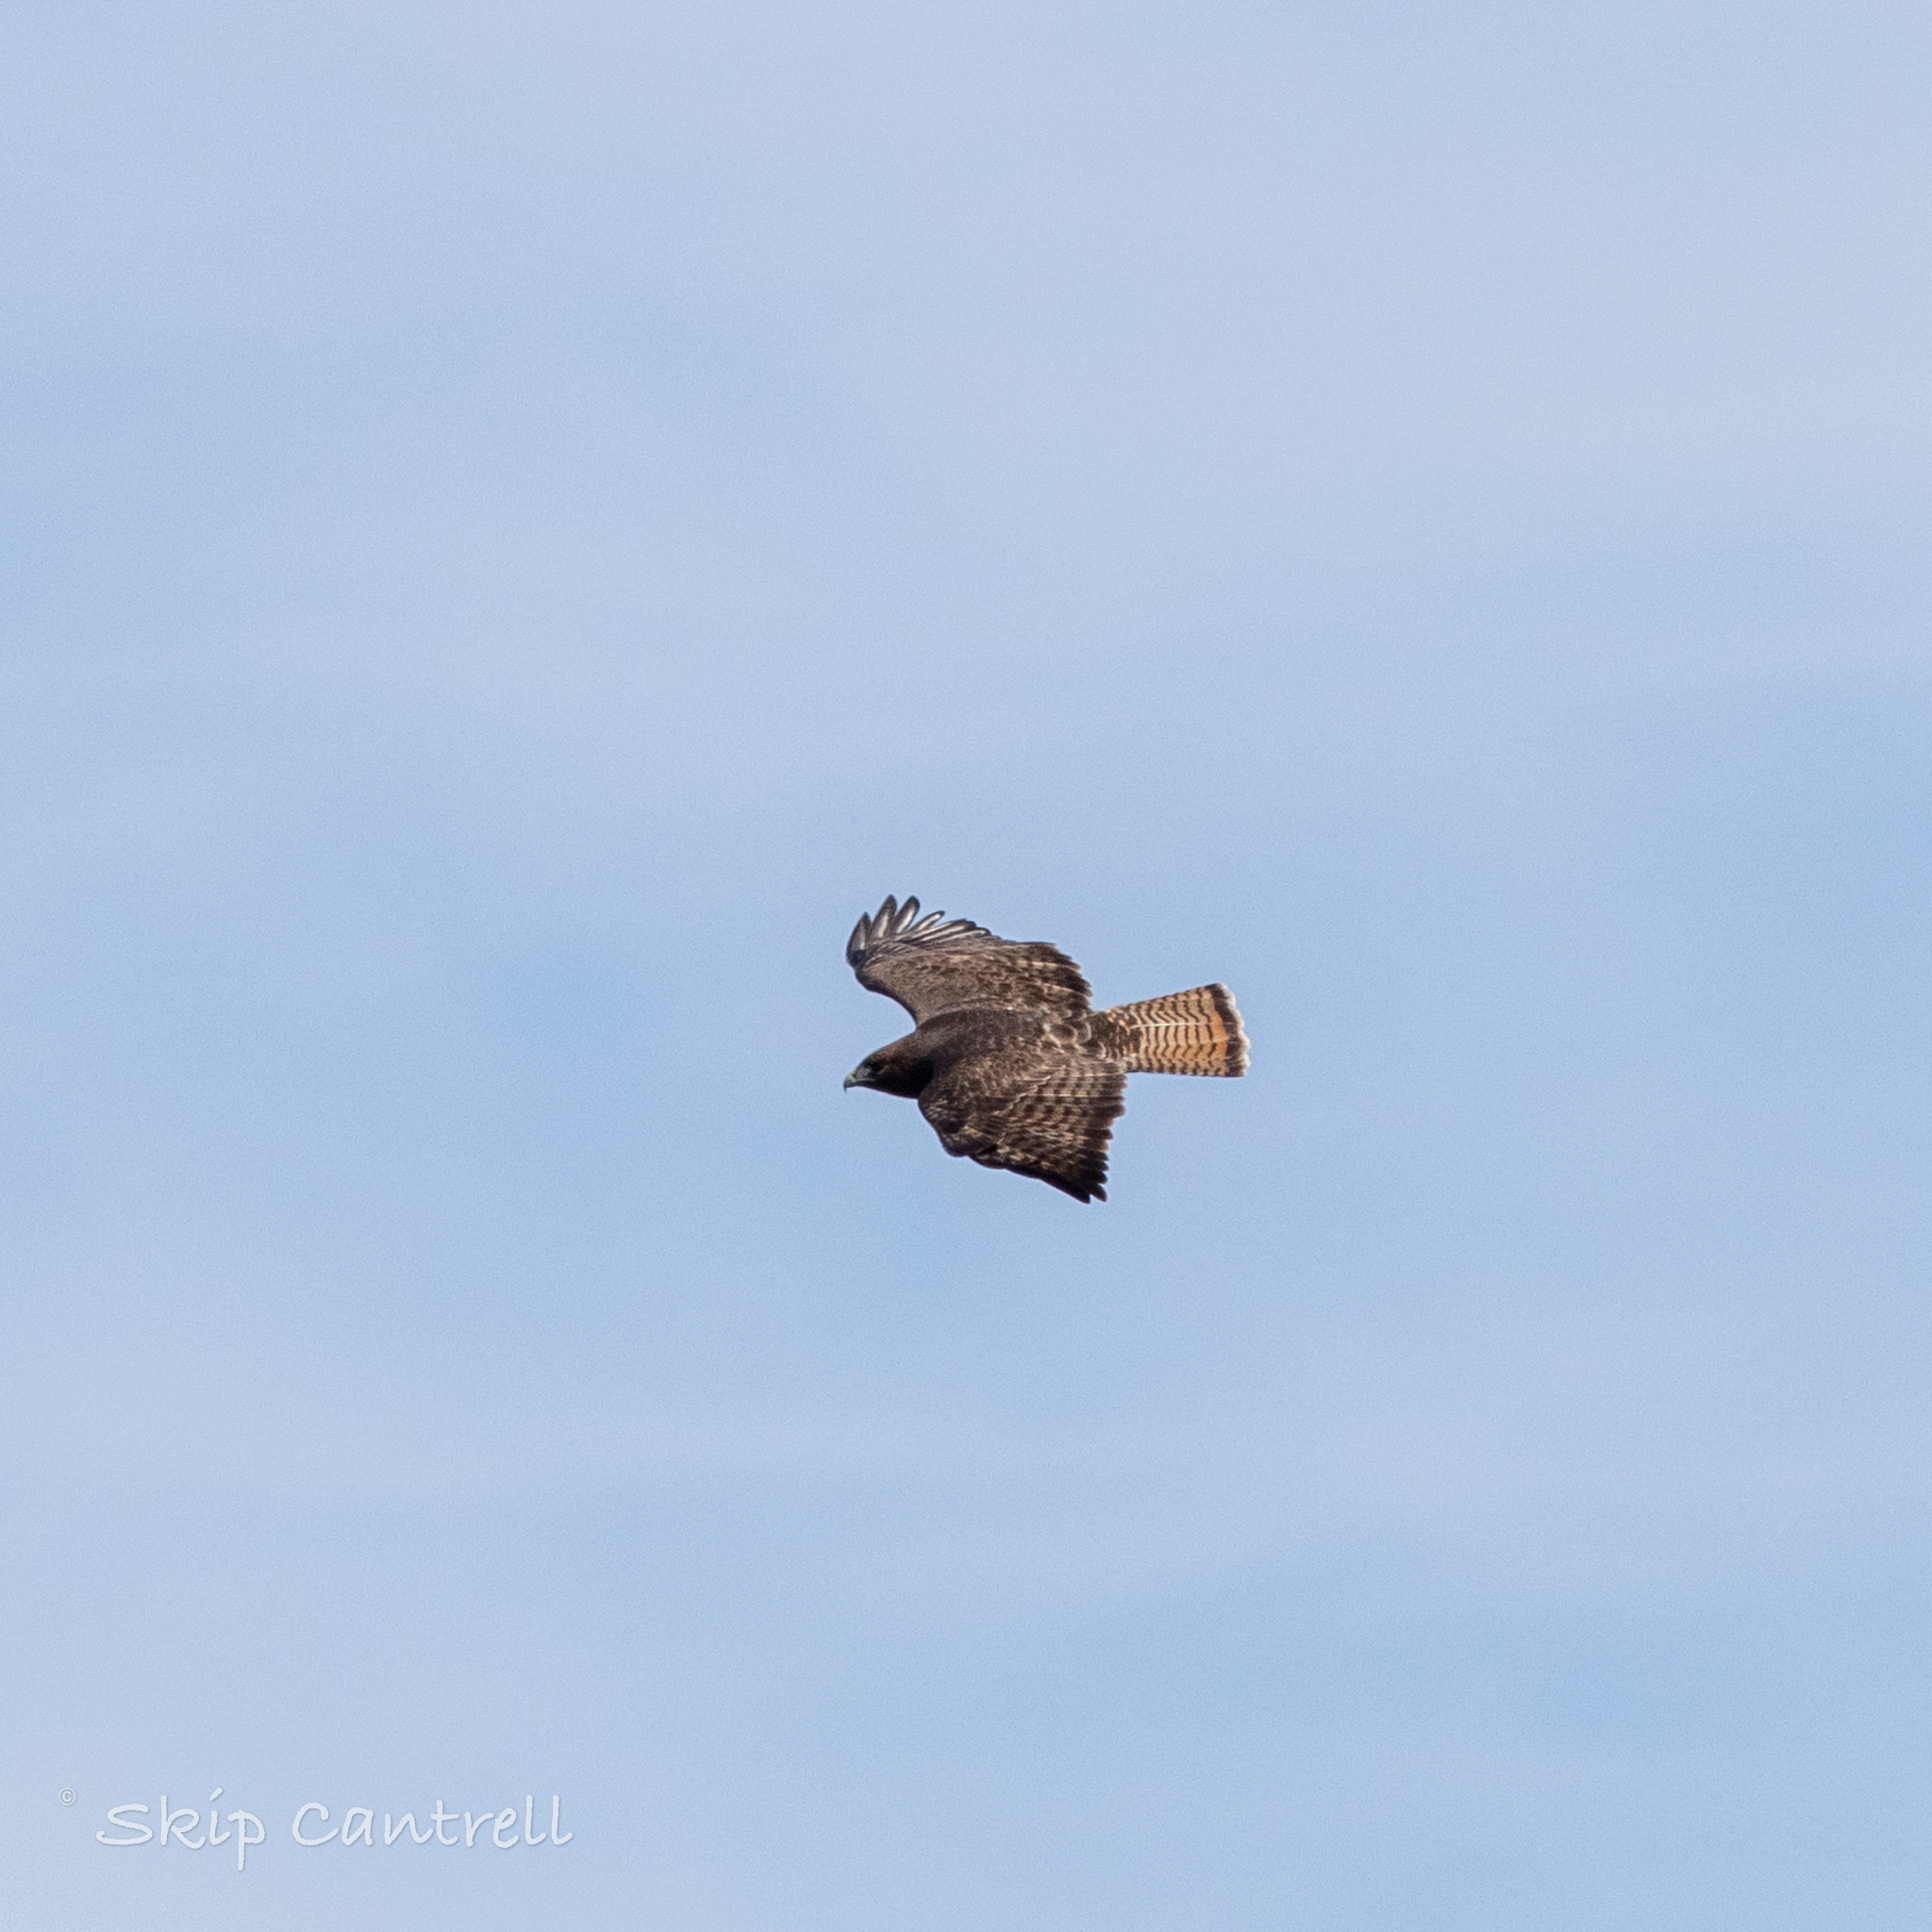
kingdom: Animalia
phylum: Chordata
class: Aves
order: Accipitriformes
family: Accipitridae
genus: Buteo
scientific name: Buteo jamaicensis
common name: Red-tailed hawk
